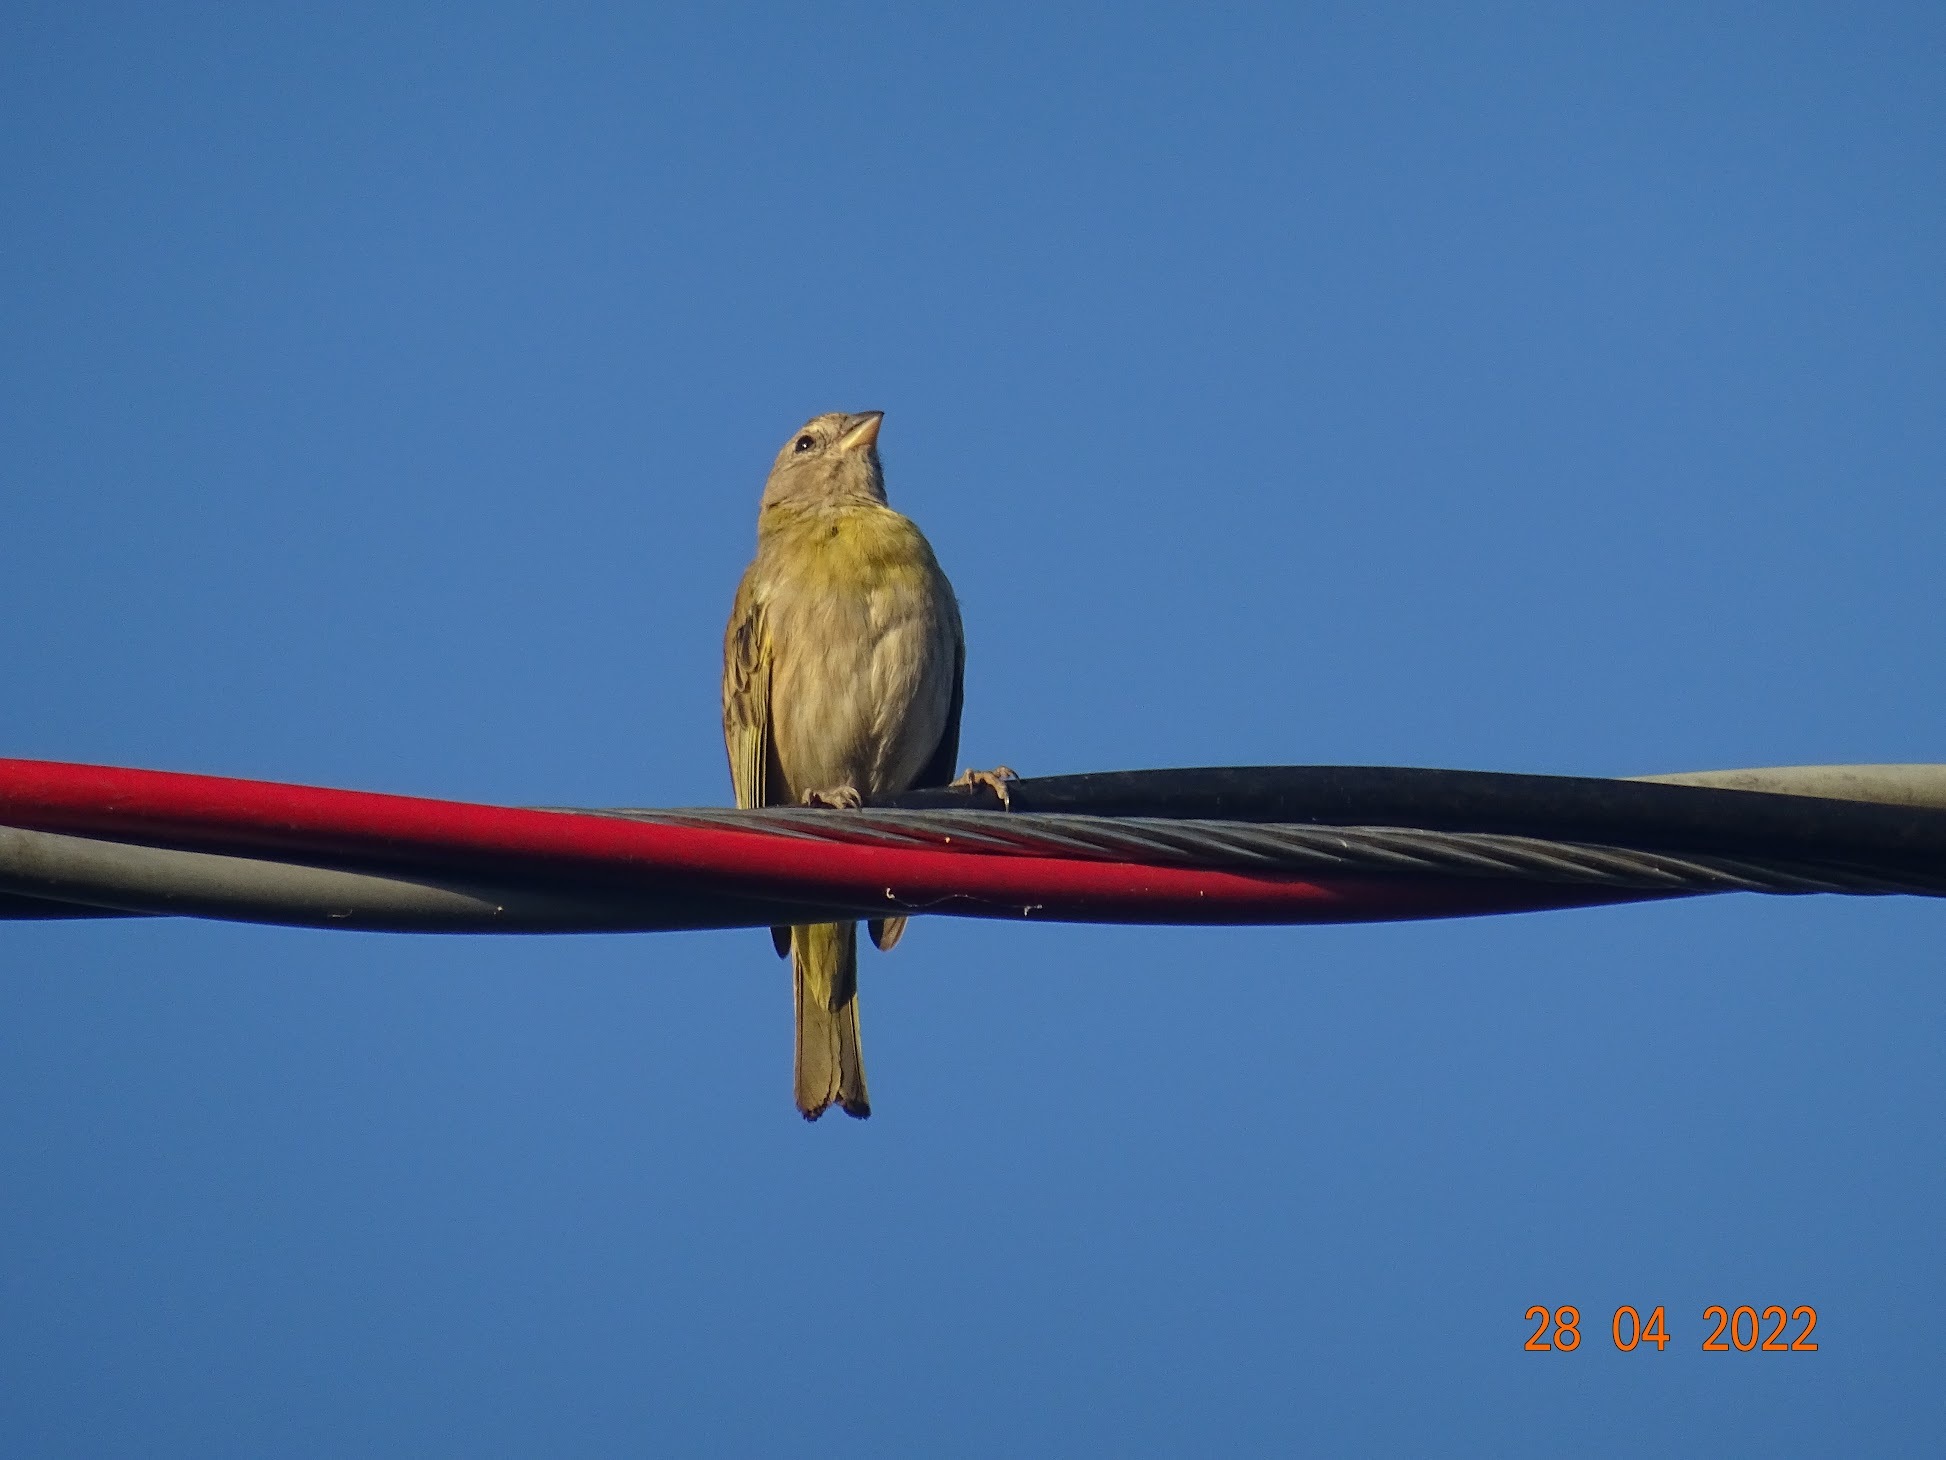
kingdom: Animalia
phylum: Chordata
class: Aves
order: Passeriformes
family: Thraupidae
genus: Sicalis
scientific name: Sicalis flaveola
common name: Saffron finch
